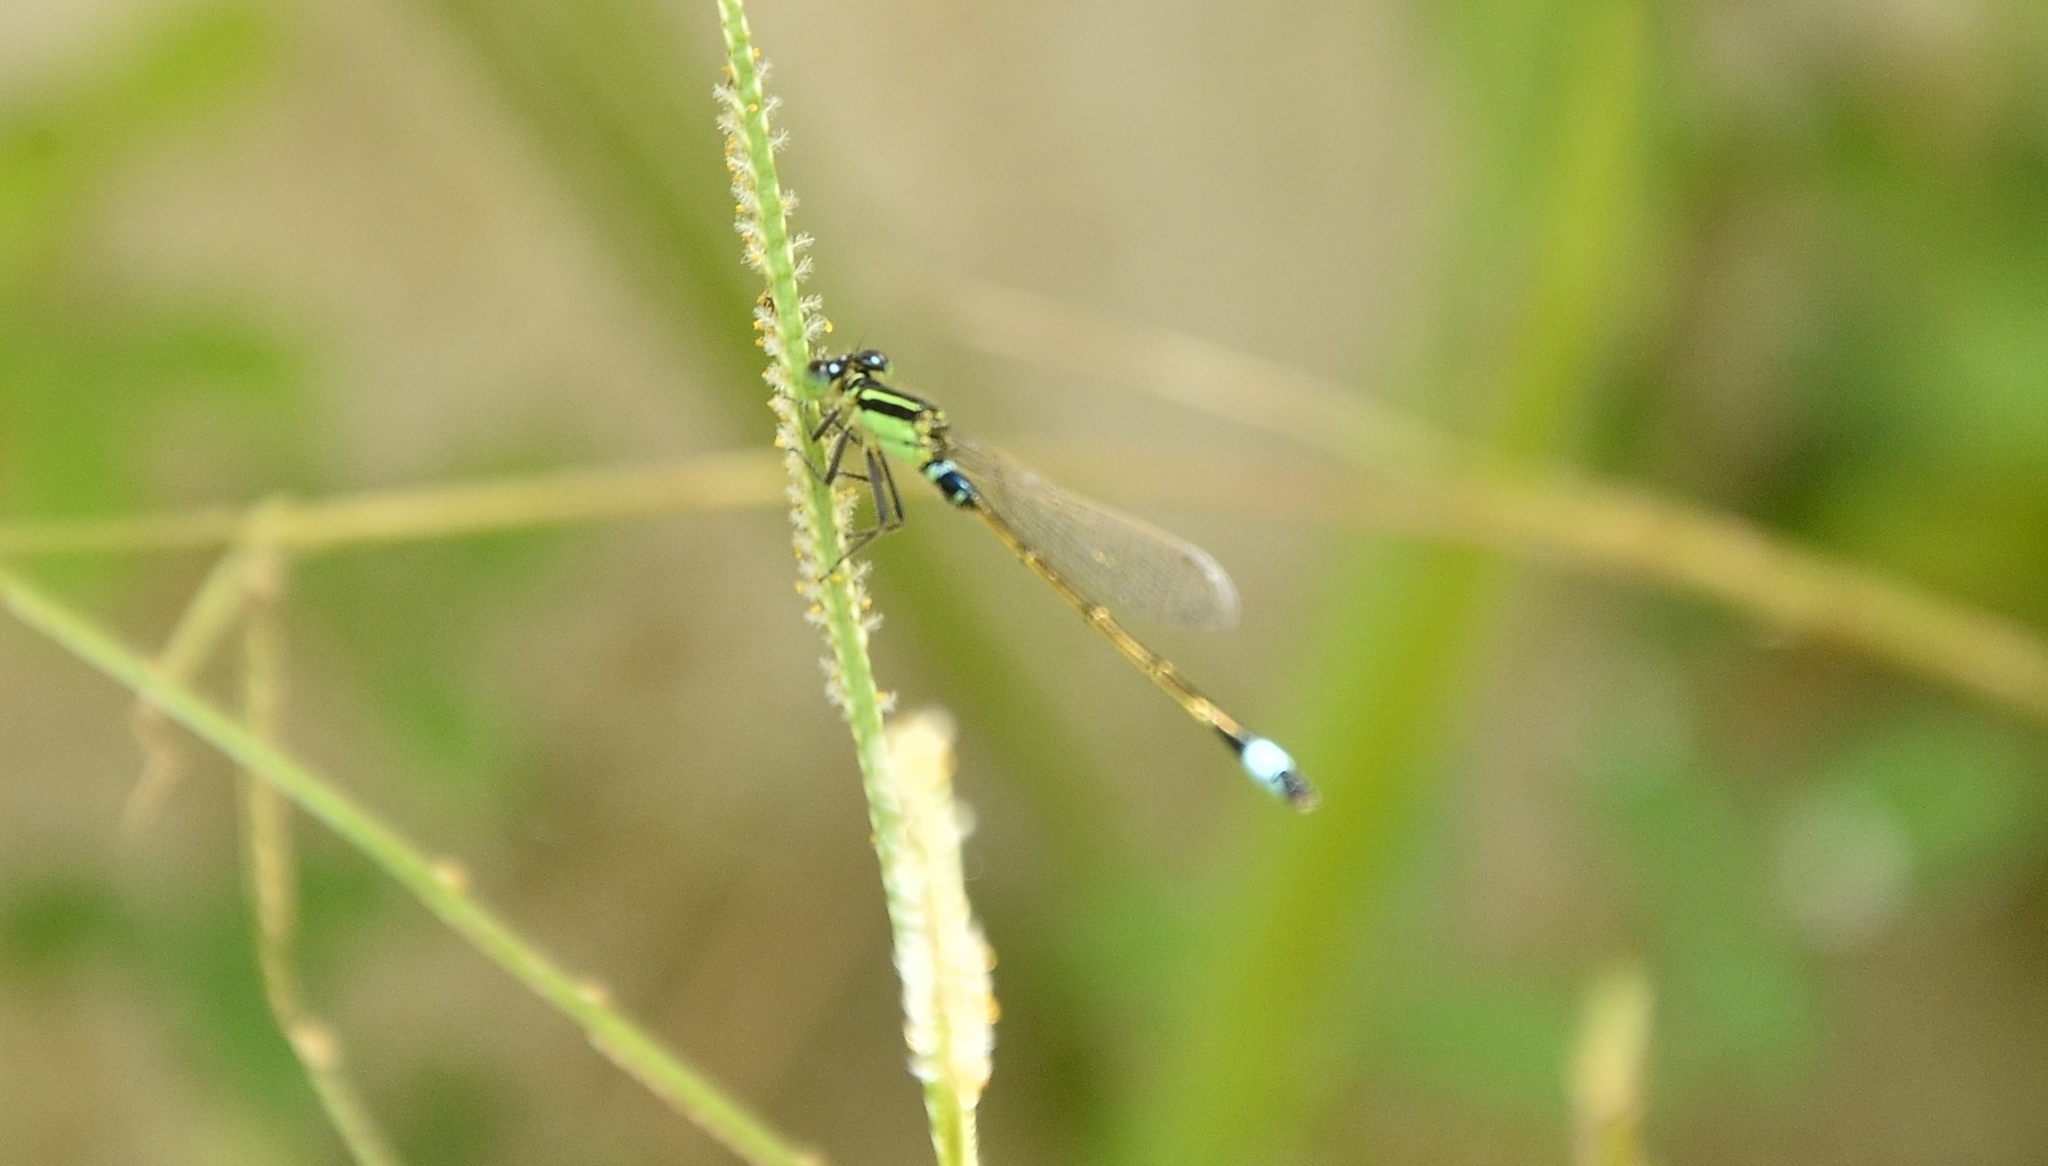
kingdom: Animalia
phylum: Arthropoda
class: Insecta
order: Odonata
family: Coenagrionidae
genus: Ischnura
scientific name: Ischnura senegalensis
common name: Tropical bluetail
